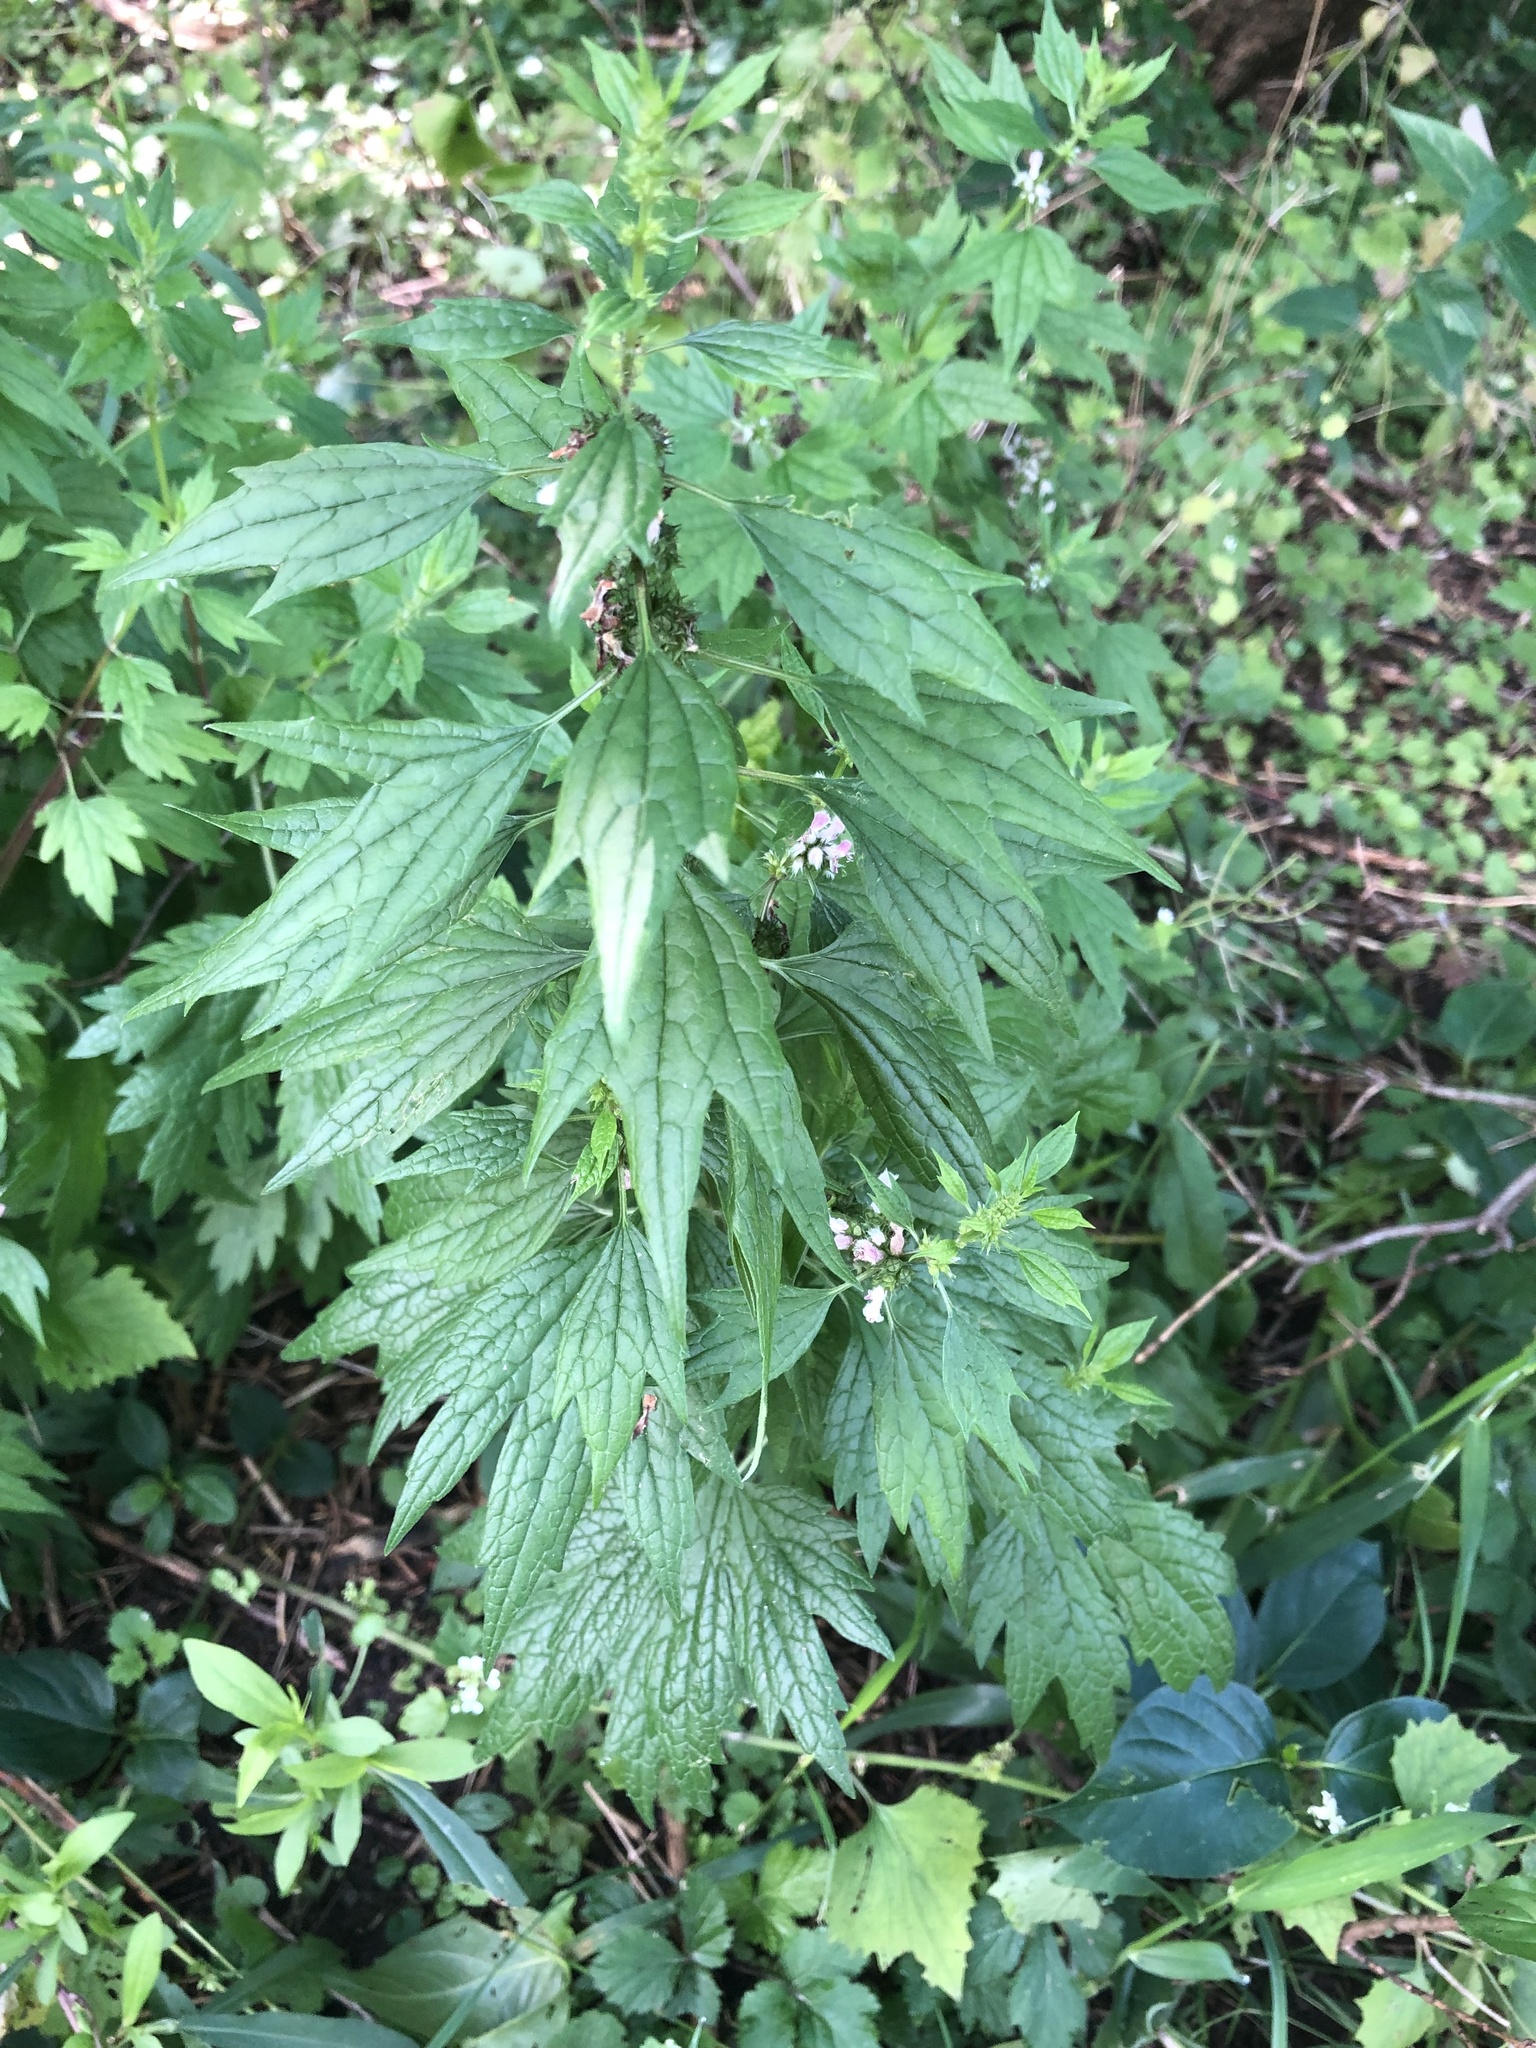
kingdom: Plantae
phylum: Tracheophyta
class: Magnoliopsida
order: Lamiales
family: Lamiaceae
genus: Leonurus
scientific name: Leonurus cardiaca
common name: Motherwort
